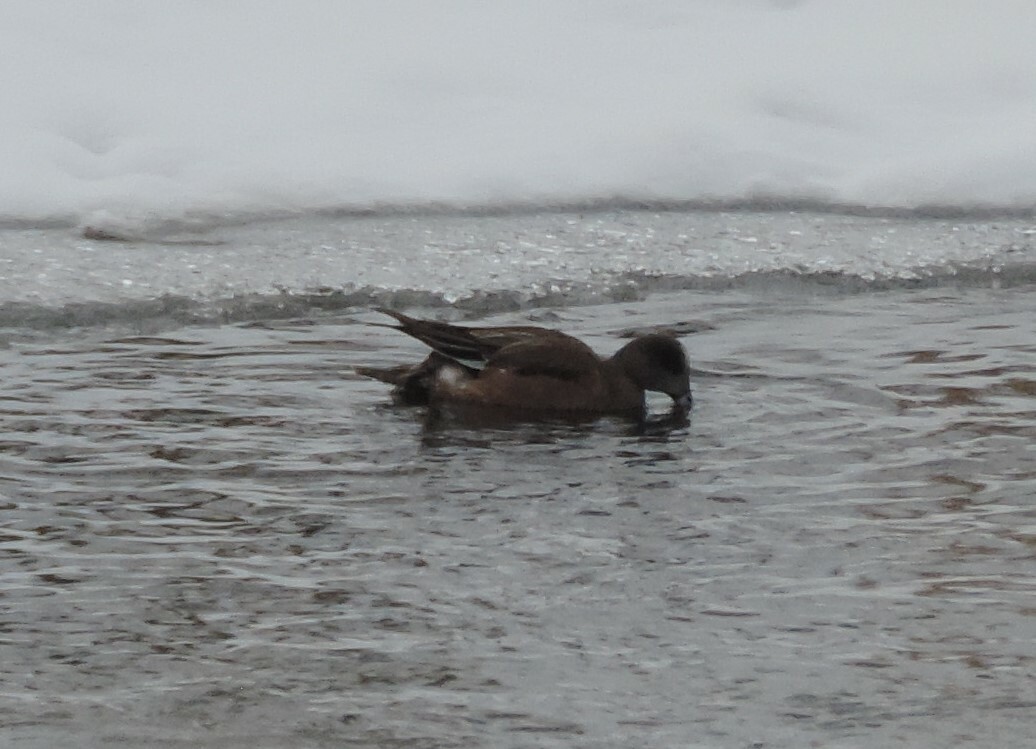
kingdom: Animalia
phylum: Chordata
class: Aves
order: Anseriformes
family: Anatidae
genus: Mareca
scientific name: Mareca americana
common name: American wigeon
